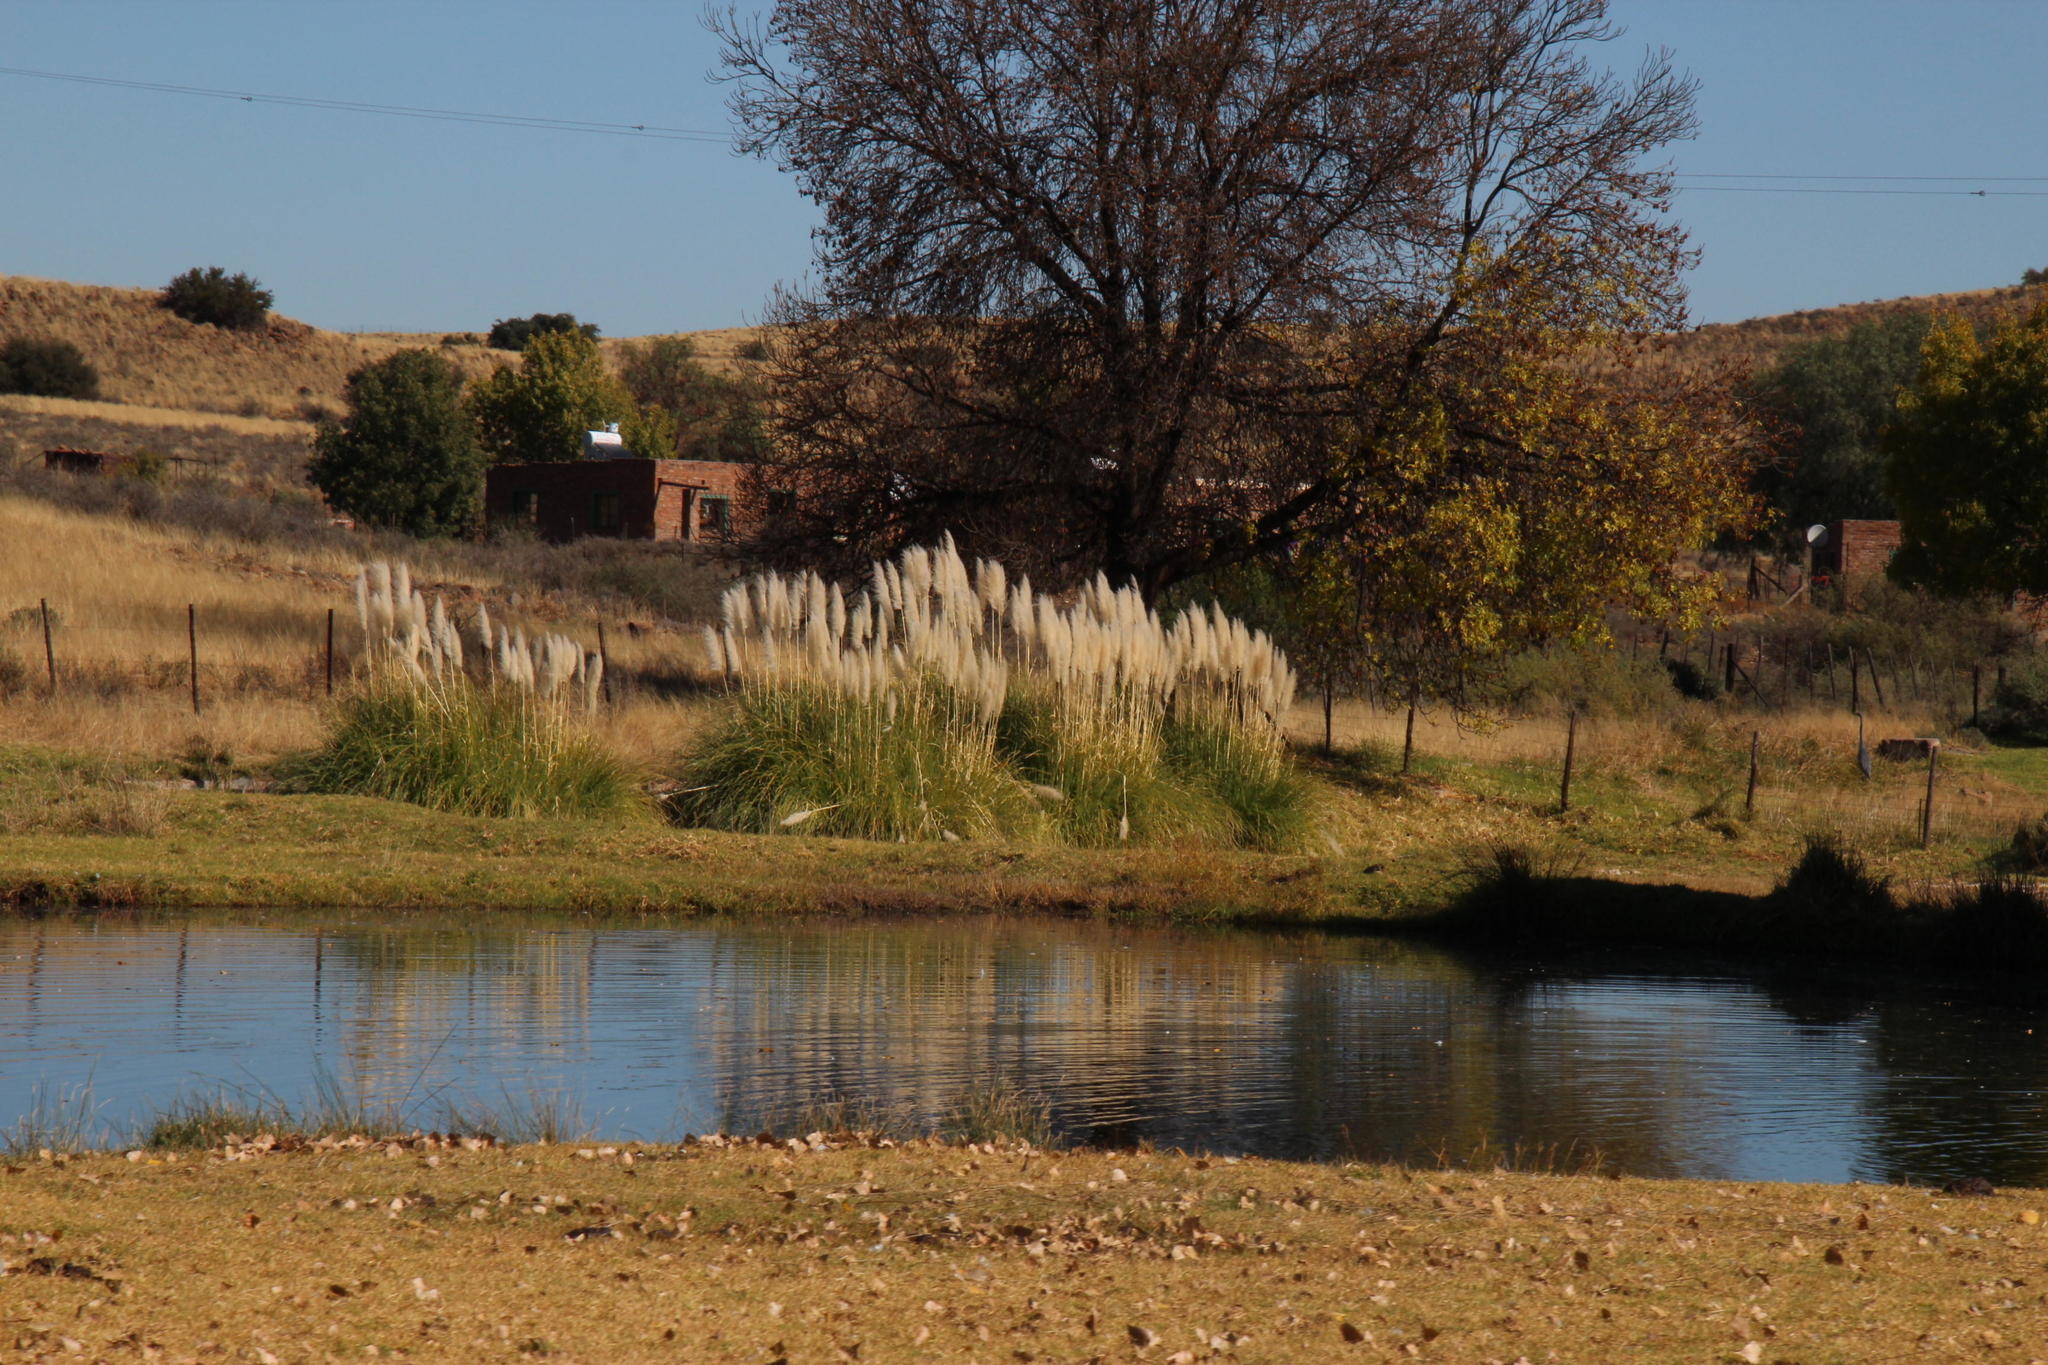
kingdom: Plantae
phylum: Tracheophyta
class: Liliopsida
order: Poales
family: Poaceae
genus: Cortaderia
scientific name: Cortaderia selloana
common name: Uruguayan pampas grass
